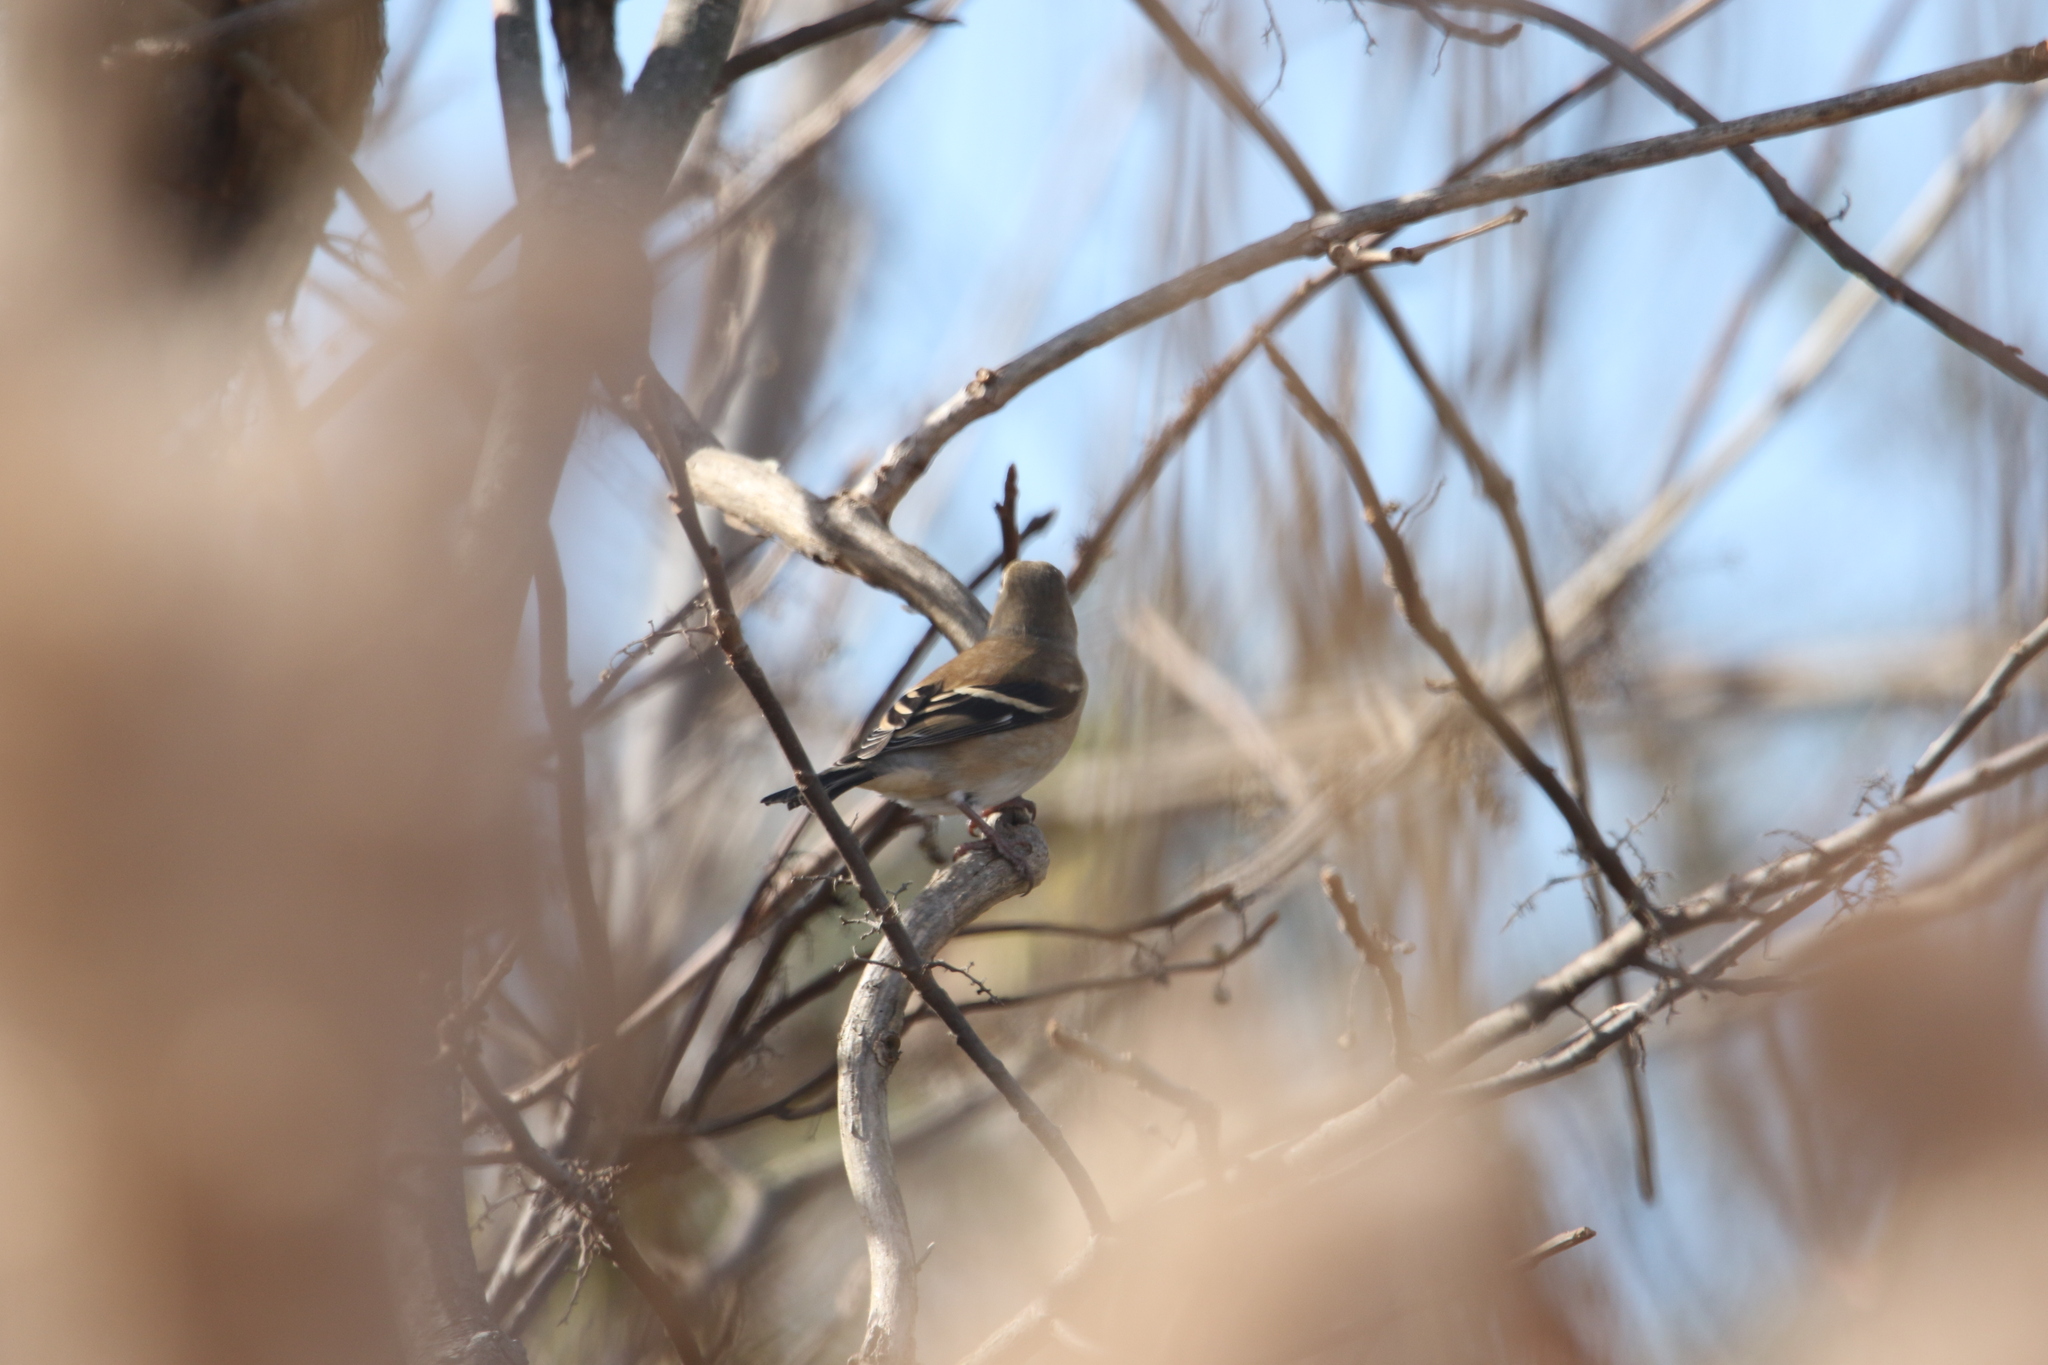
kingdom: Animalia
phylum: Chordata
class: Aves
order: Passeriformes
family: Fringillidae
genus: Spinus
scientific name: Spinus tristis
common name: American goldfinch
